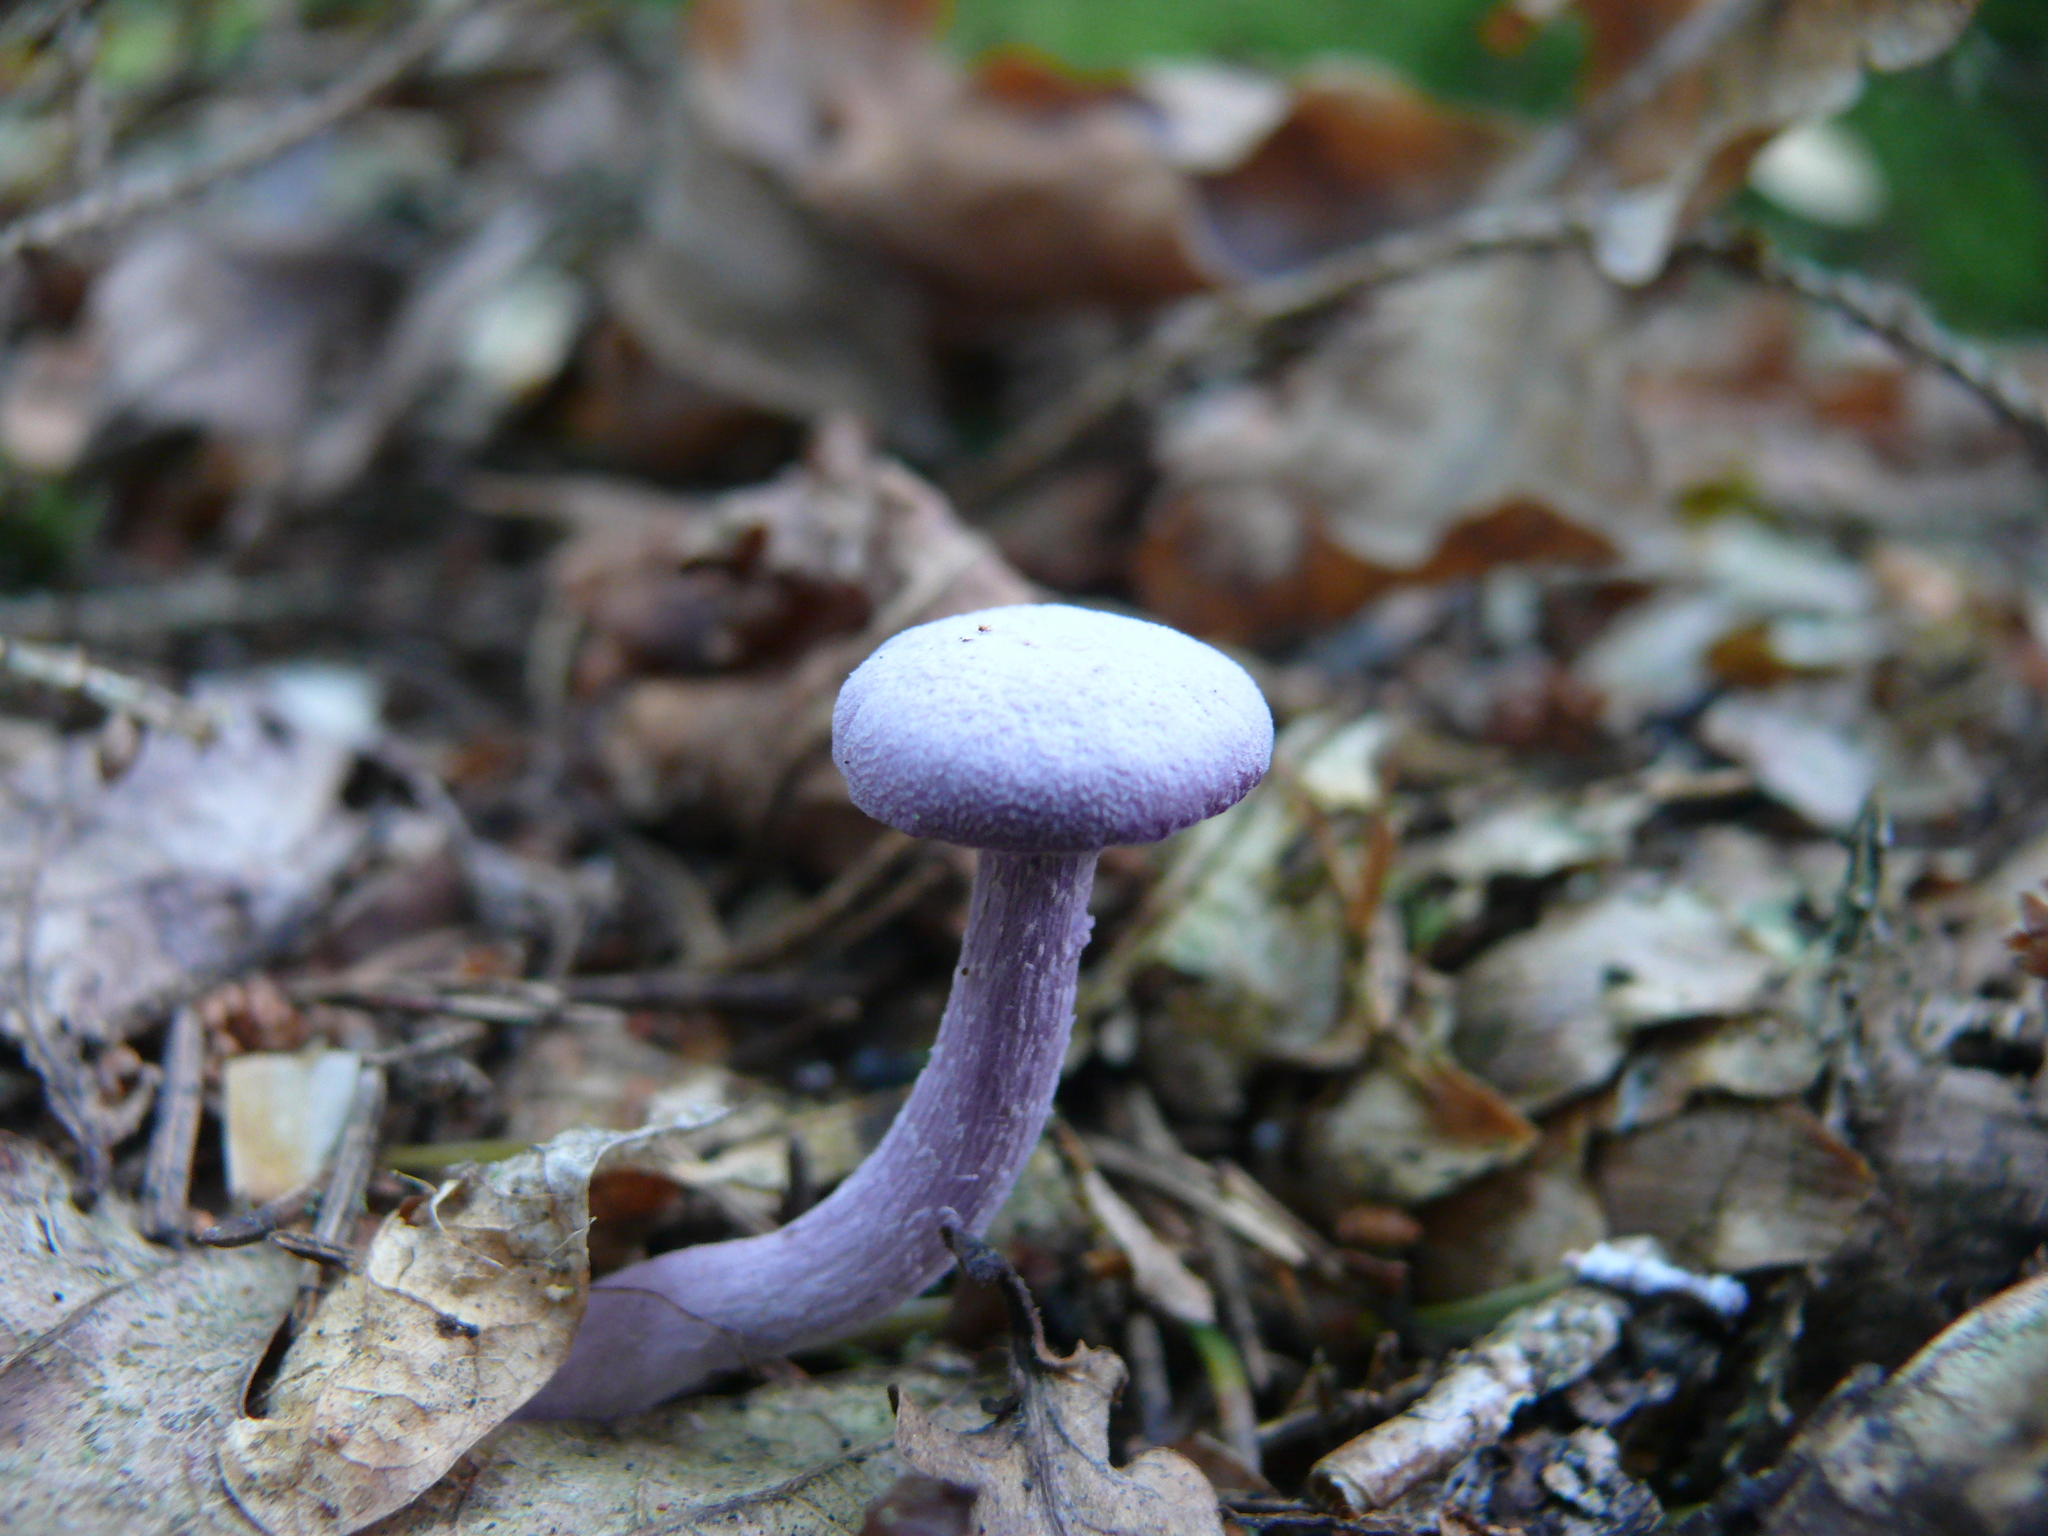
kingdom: Fungi
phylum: Basidiomycota
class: Agaricomycetes
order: Agaricales
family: Hydnangiaceae
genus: Laccaria
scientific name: Laccaria amethystina
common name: Amethyst deceiver
